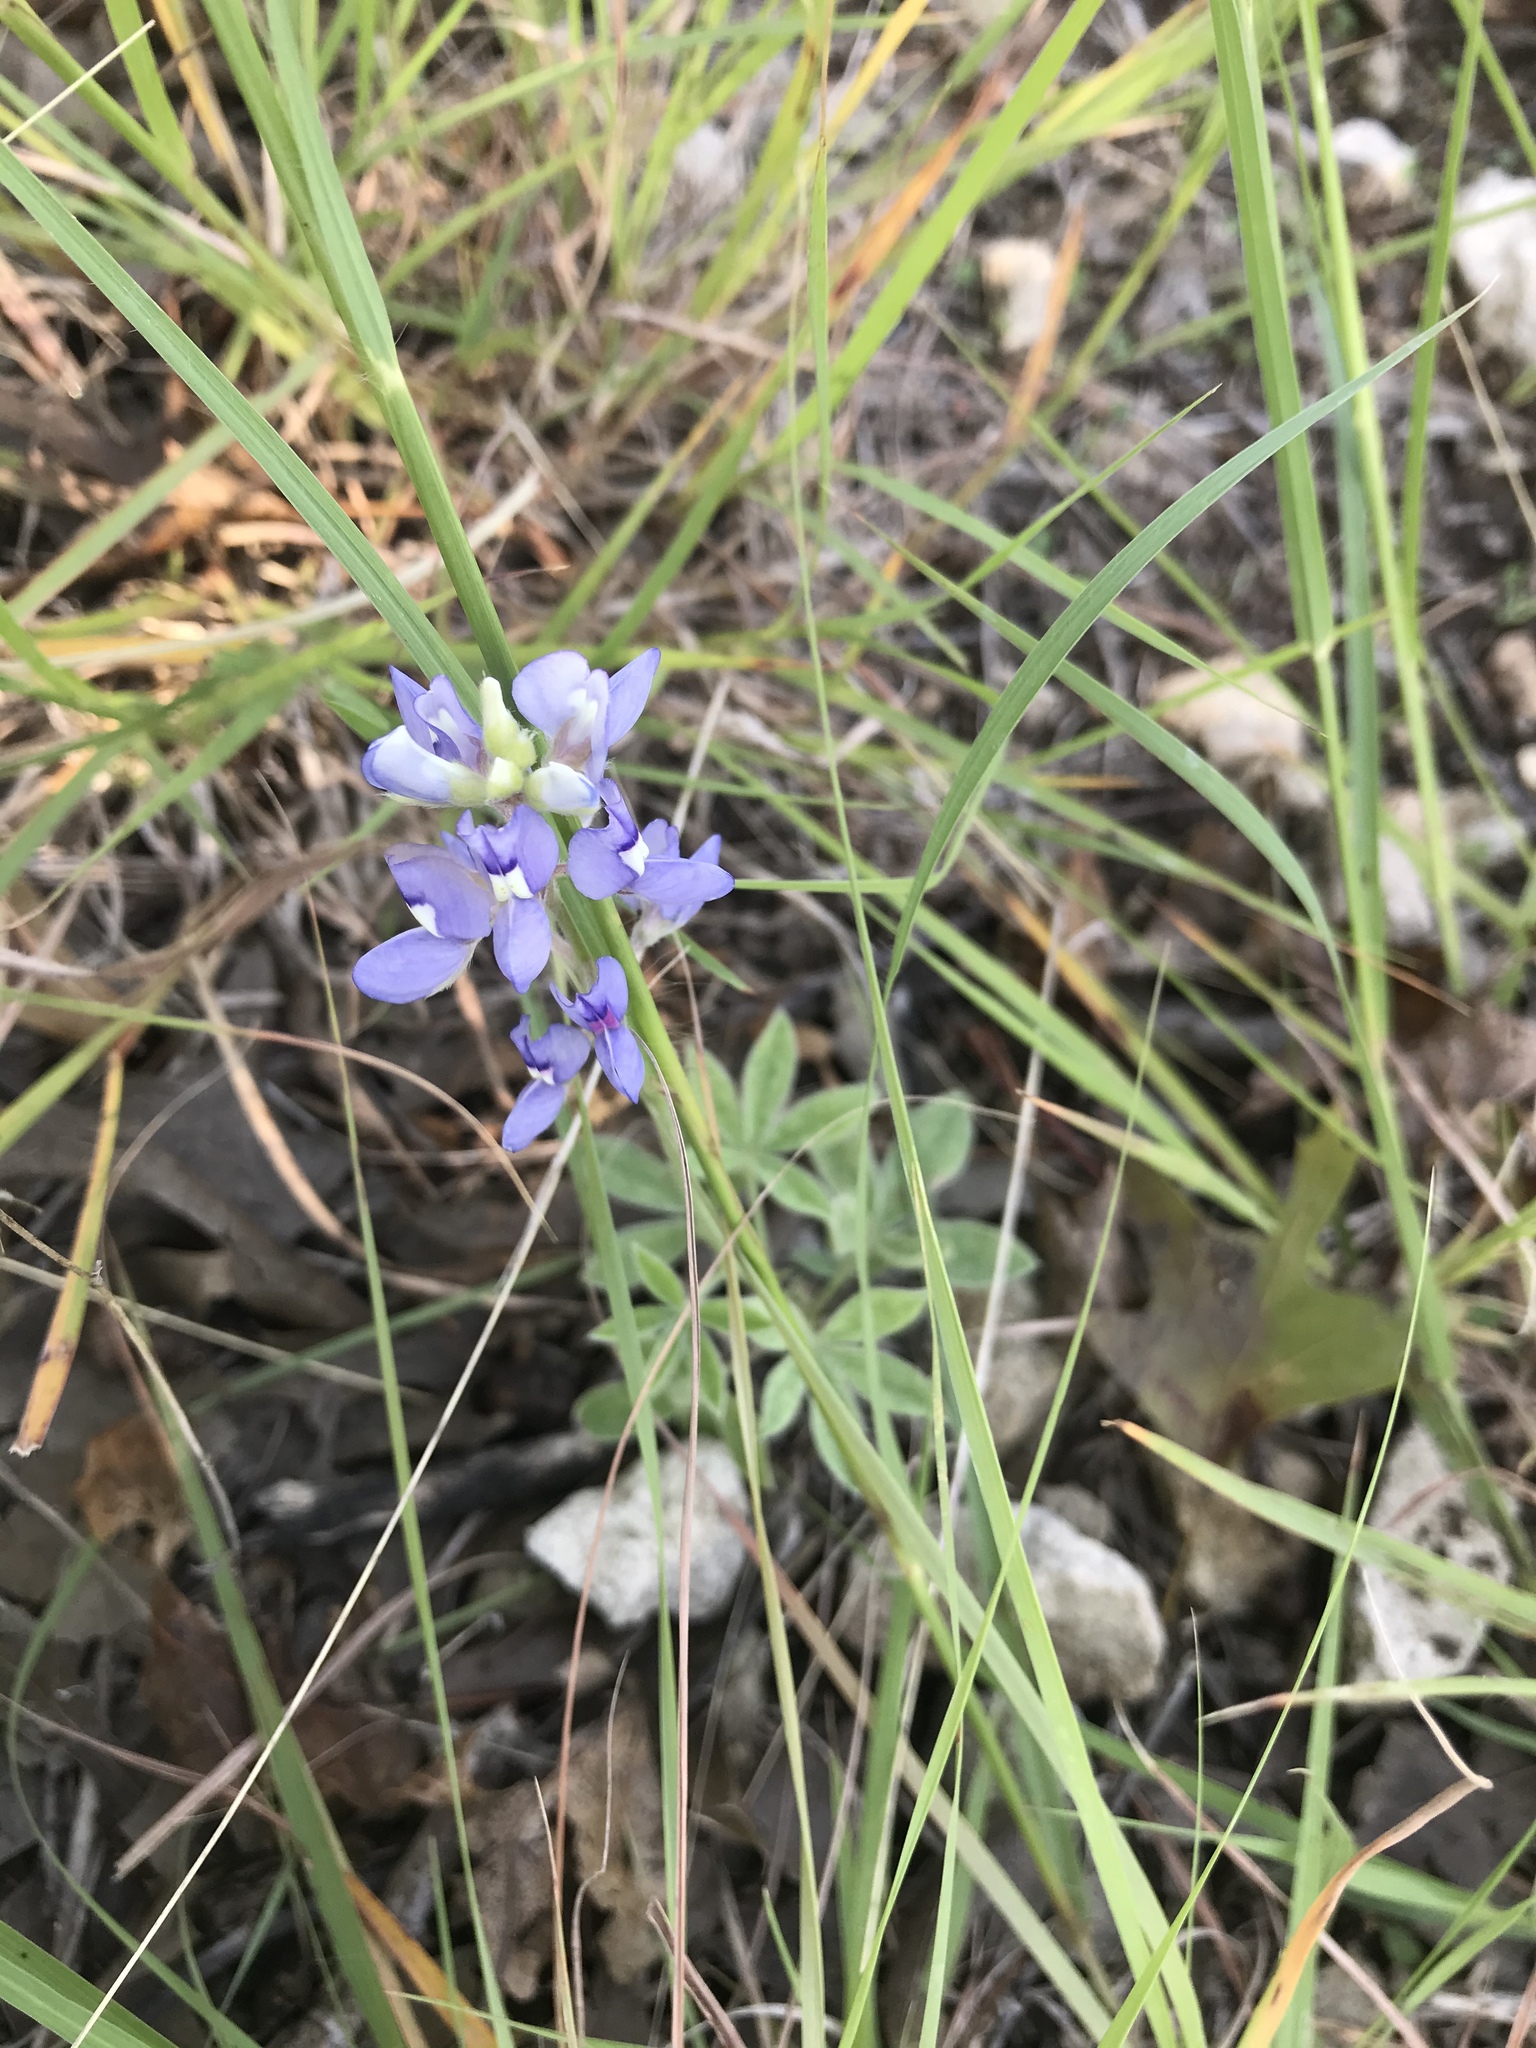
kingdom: Plantae
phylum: Tracheophyta
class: Magnoliopsida
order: Fabales
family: Fabaceae
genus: Lupinus
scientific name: Lupinus texensis
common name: Texas bluebonnet
